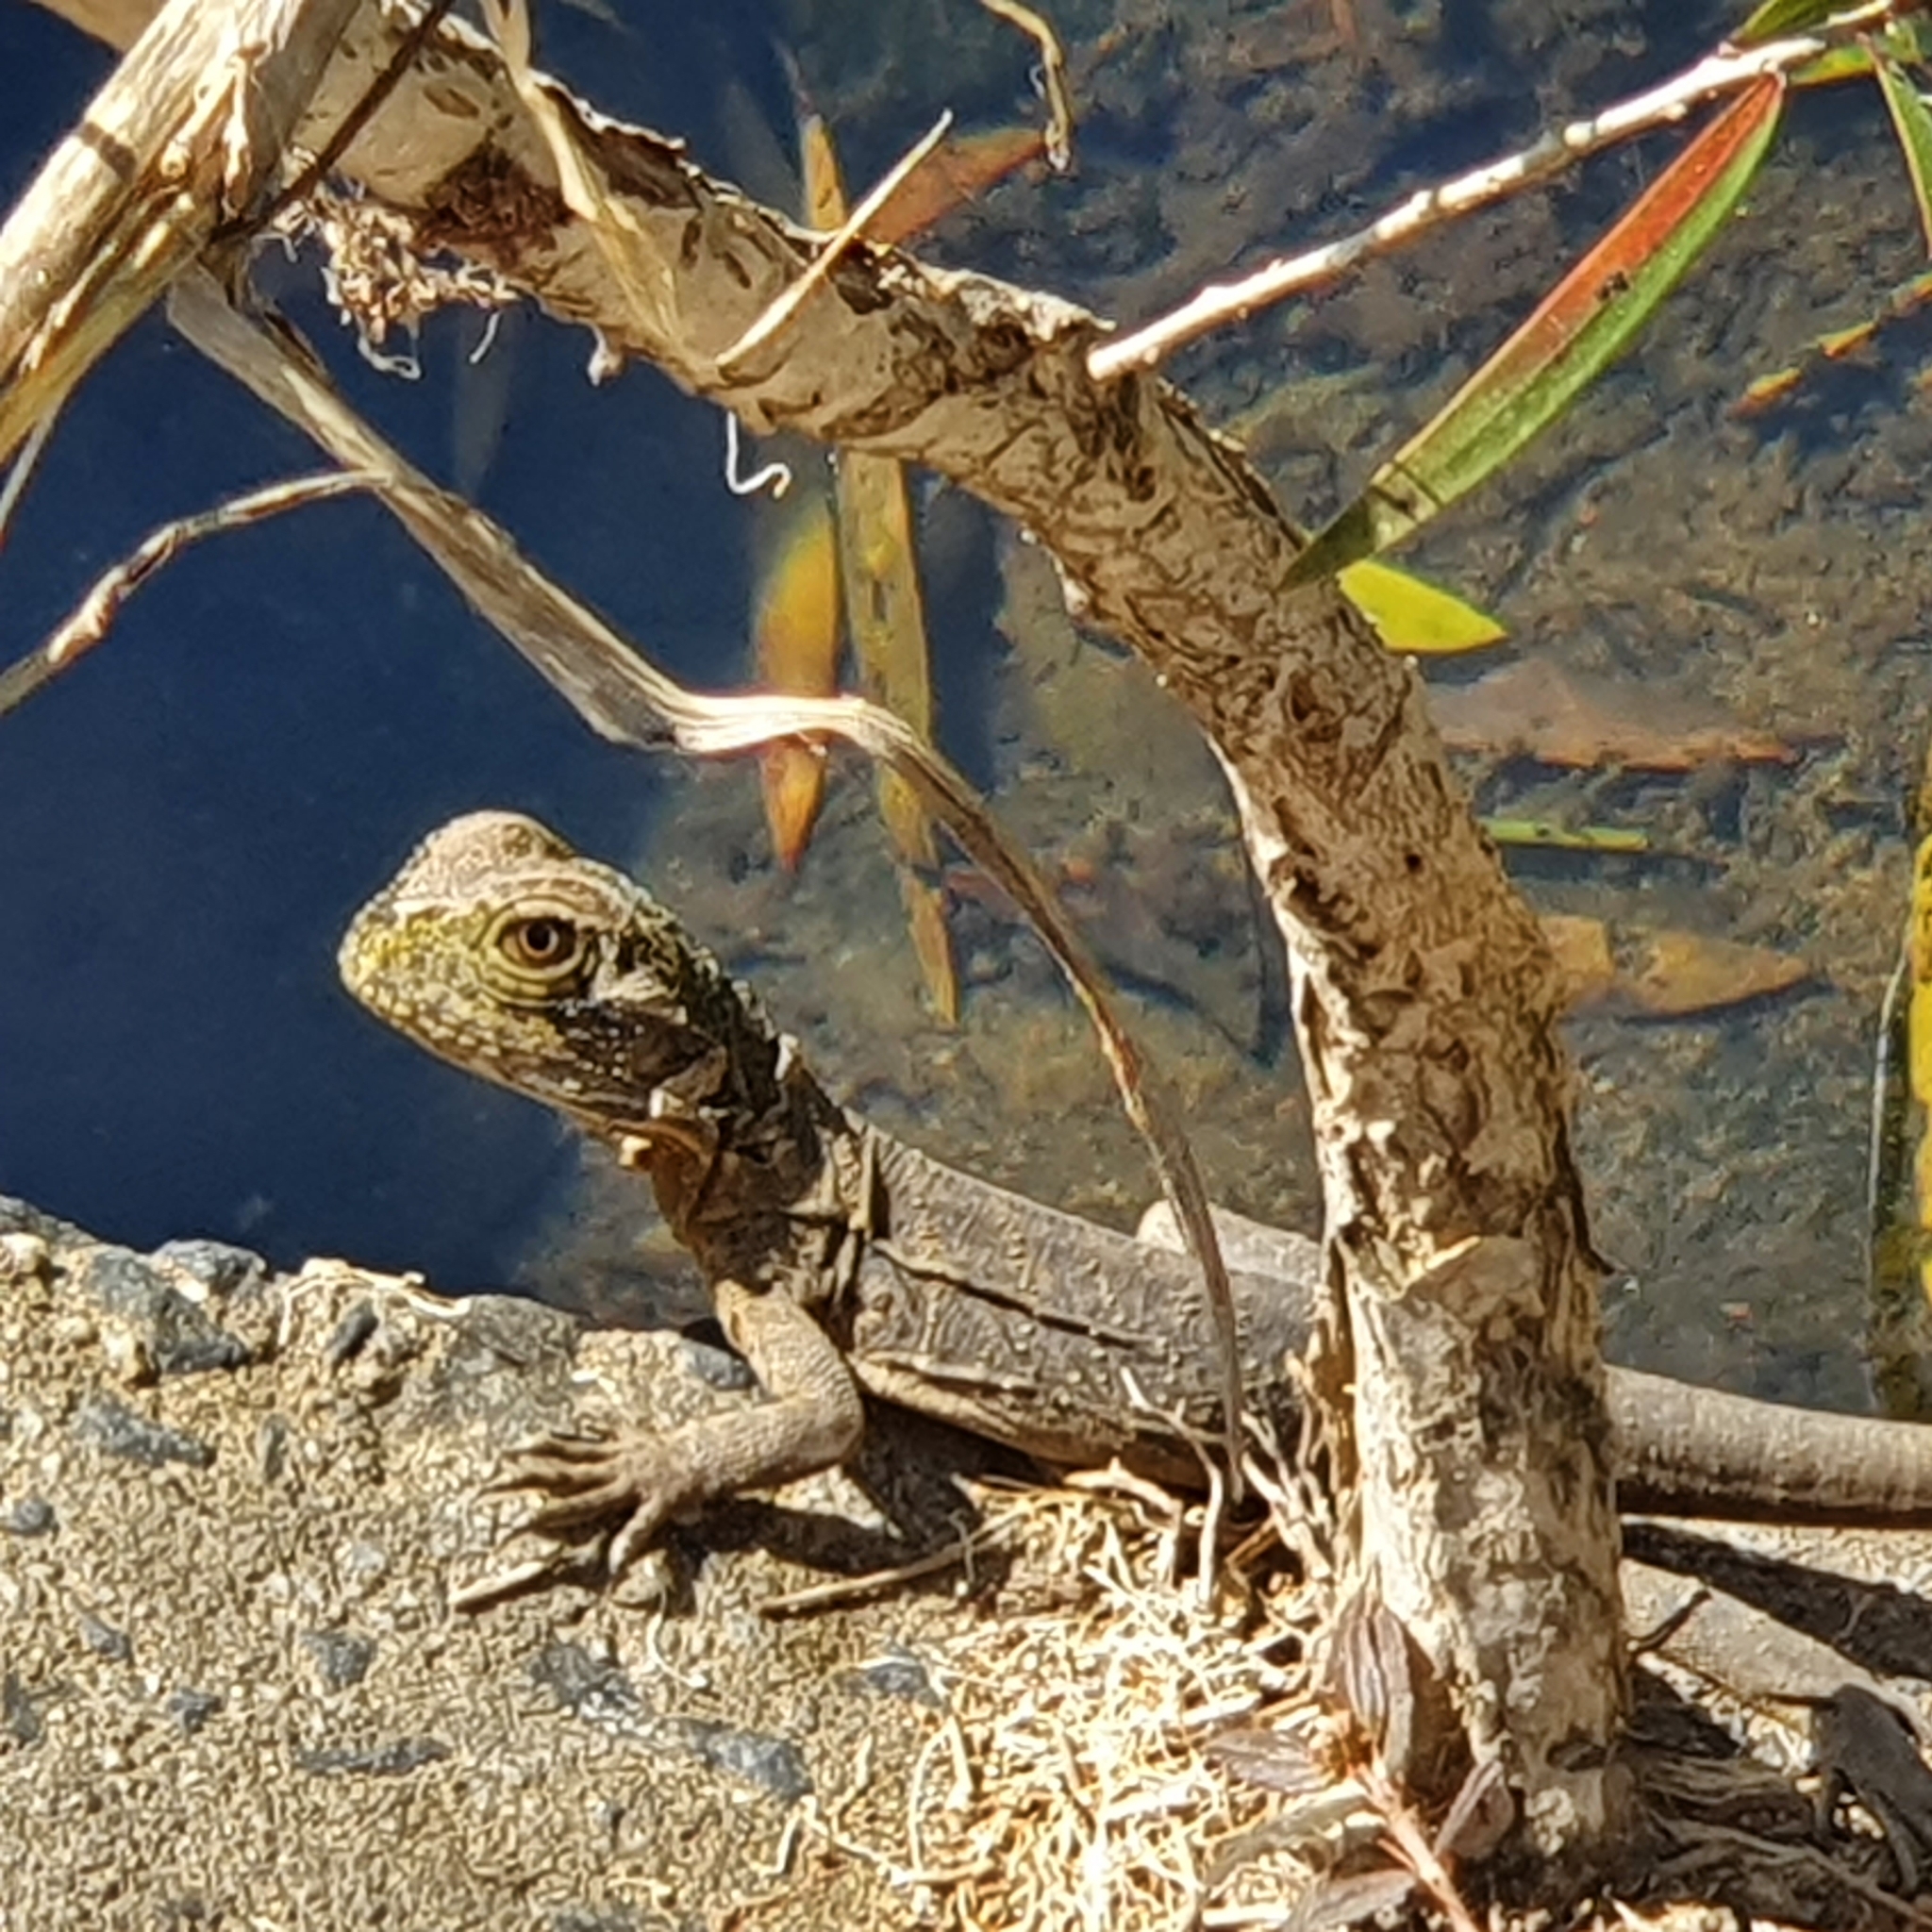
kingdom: Animalia
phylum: Chordata
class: Squamata
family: Agamidae
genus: Intellagama
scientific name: Intellagama lesueurii
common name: Eastern water dragon
